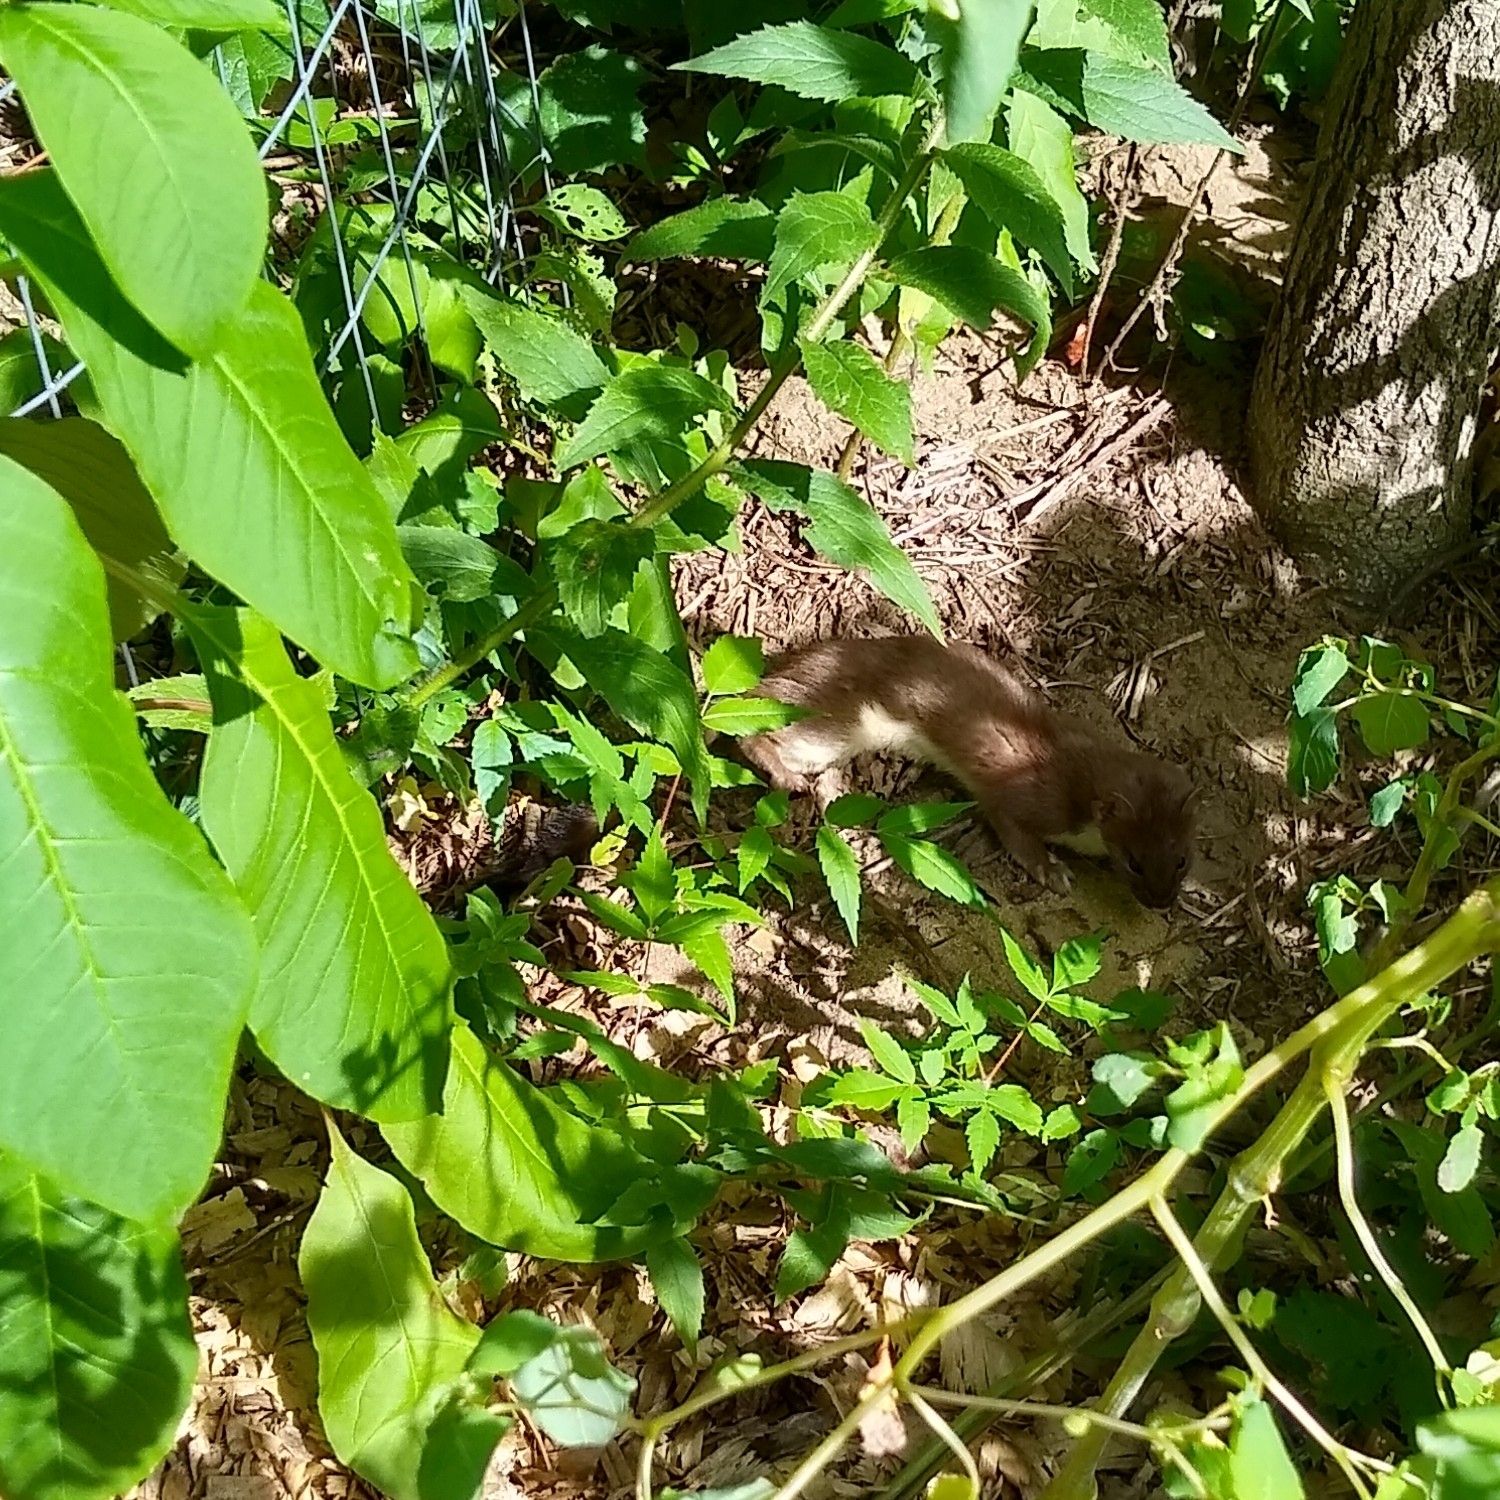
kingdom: Animalia
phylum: Chordata
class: Mammalia
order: Carnivora
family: Mustelidae
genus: Mustela
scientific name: Mustela
